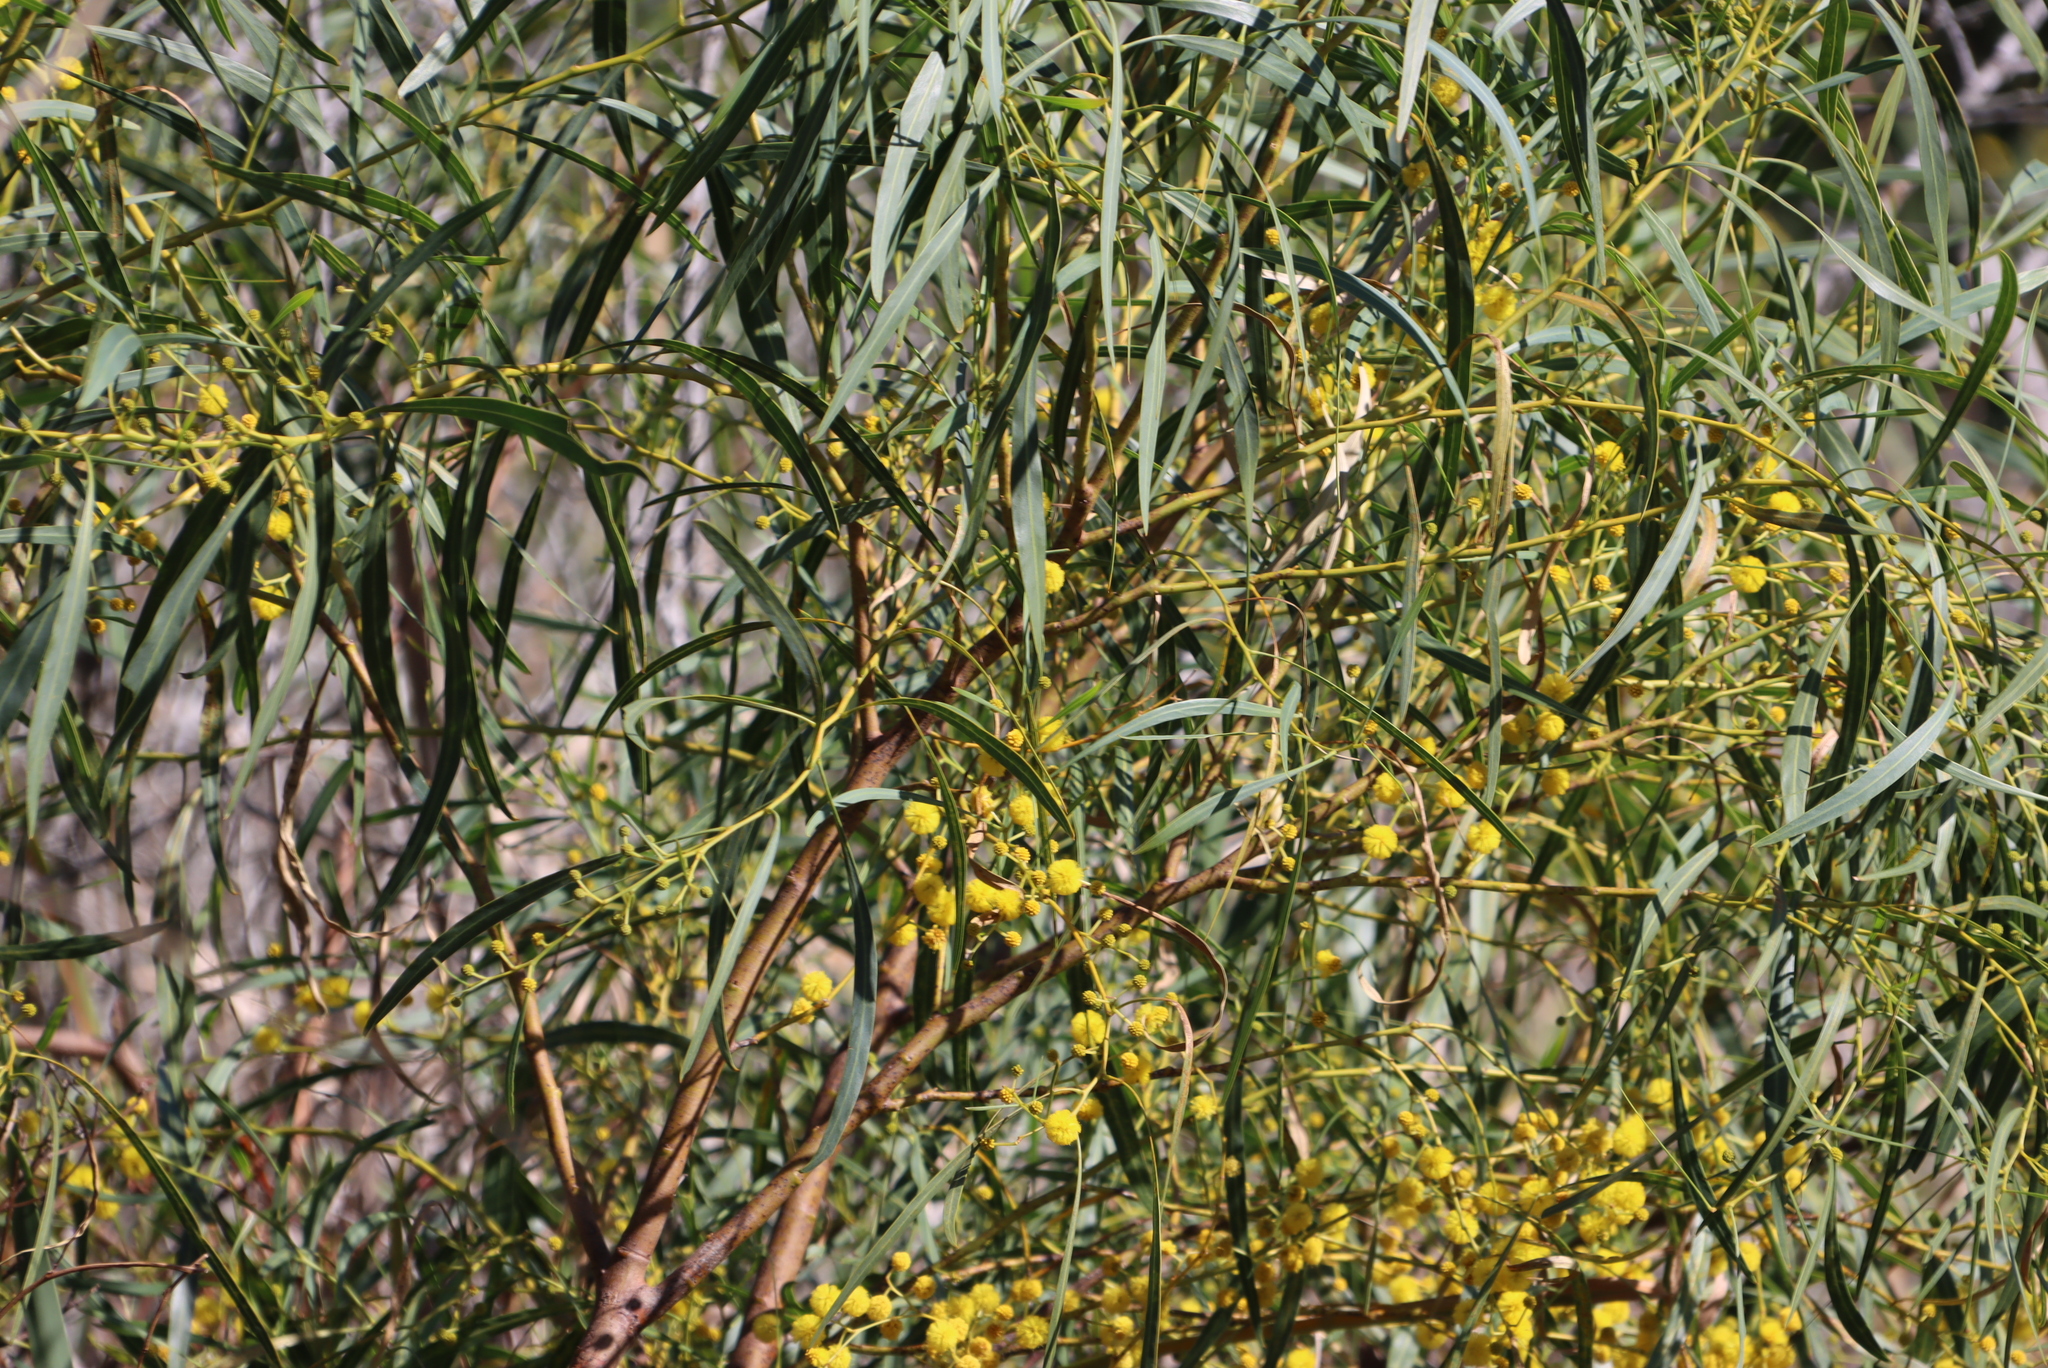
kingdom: Plantae
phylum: Tracheophyta
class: Magnoliopsida
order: Fabales
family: Fabaceae
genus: Acacia
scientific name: Acacia saligna
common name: Orange wattle
